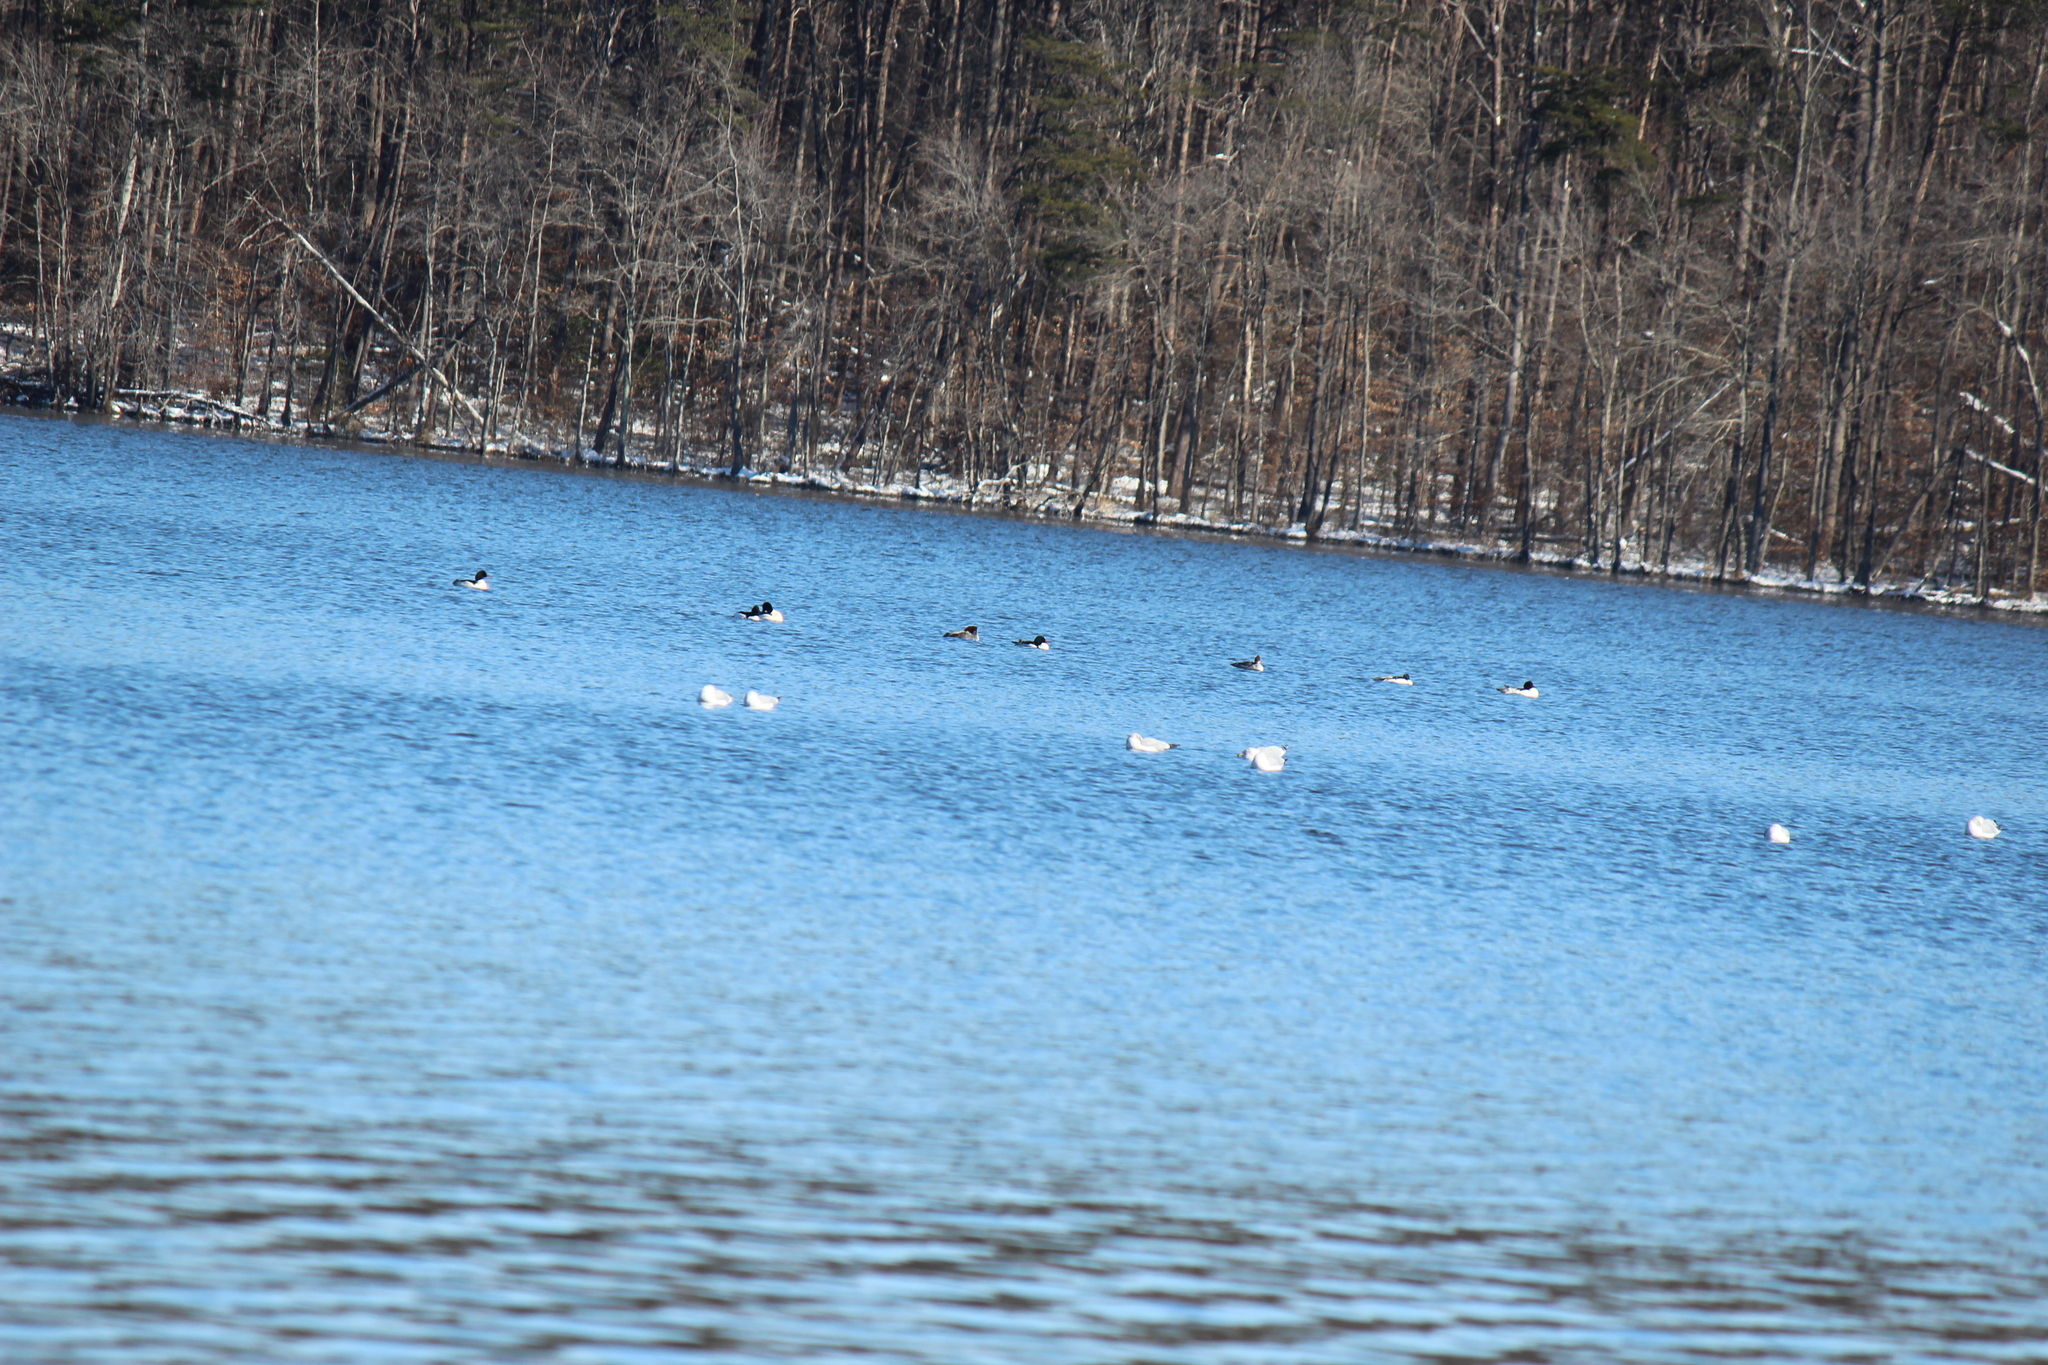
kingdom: Animalia
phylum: Chordata
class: Aves
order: Anseriformes
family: Anatidae
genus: Mergus
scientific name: Mergus merganser
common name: Common merganser
